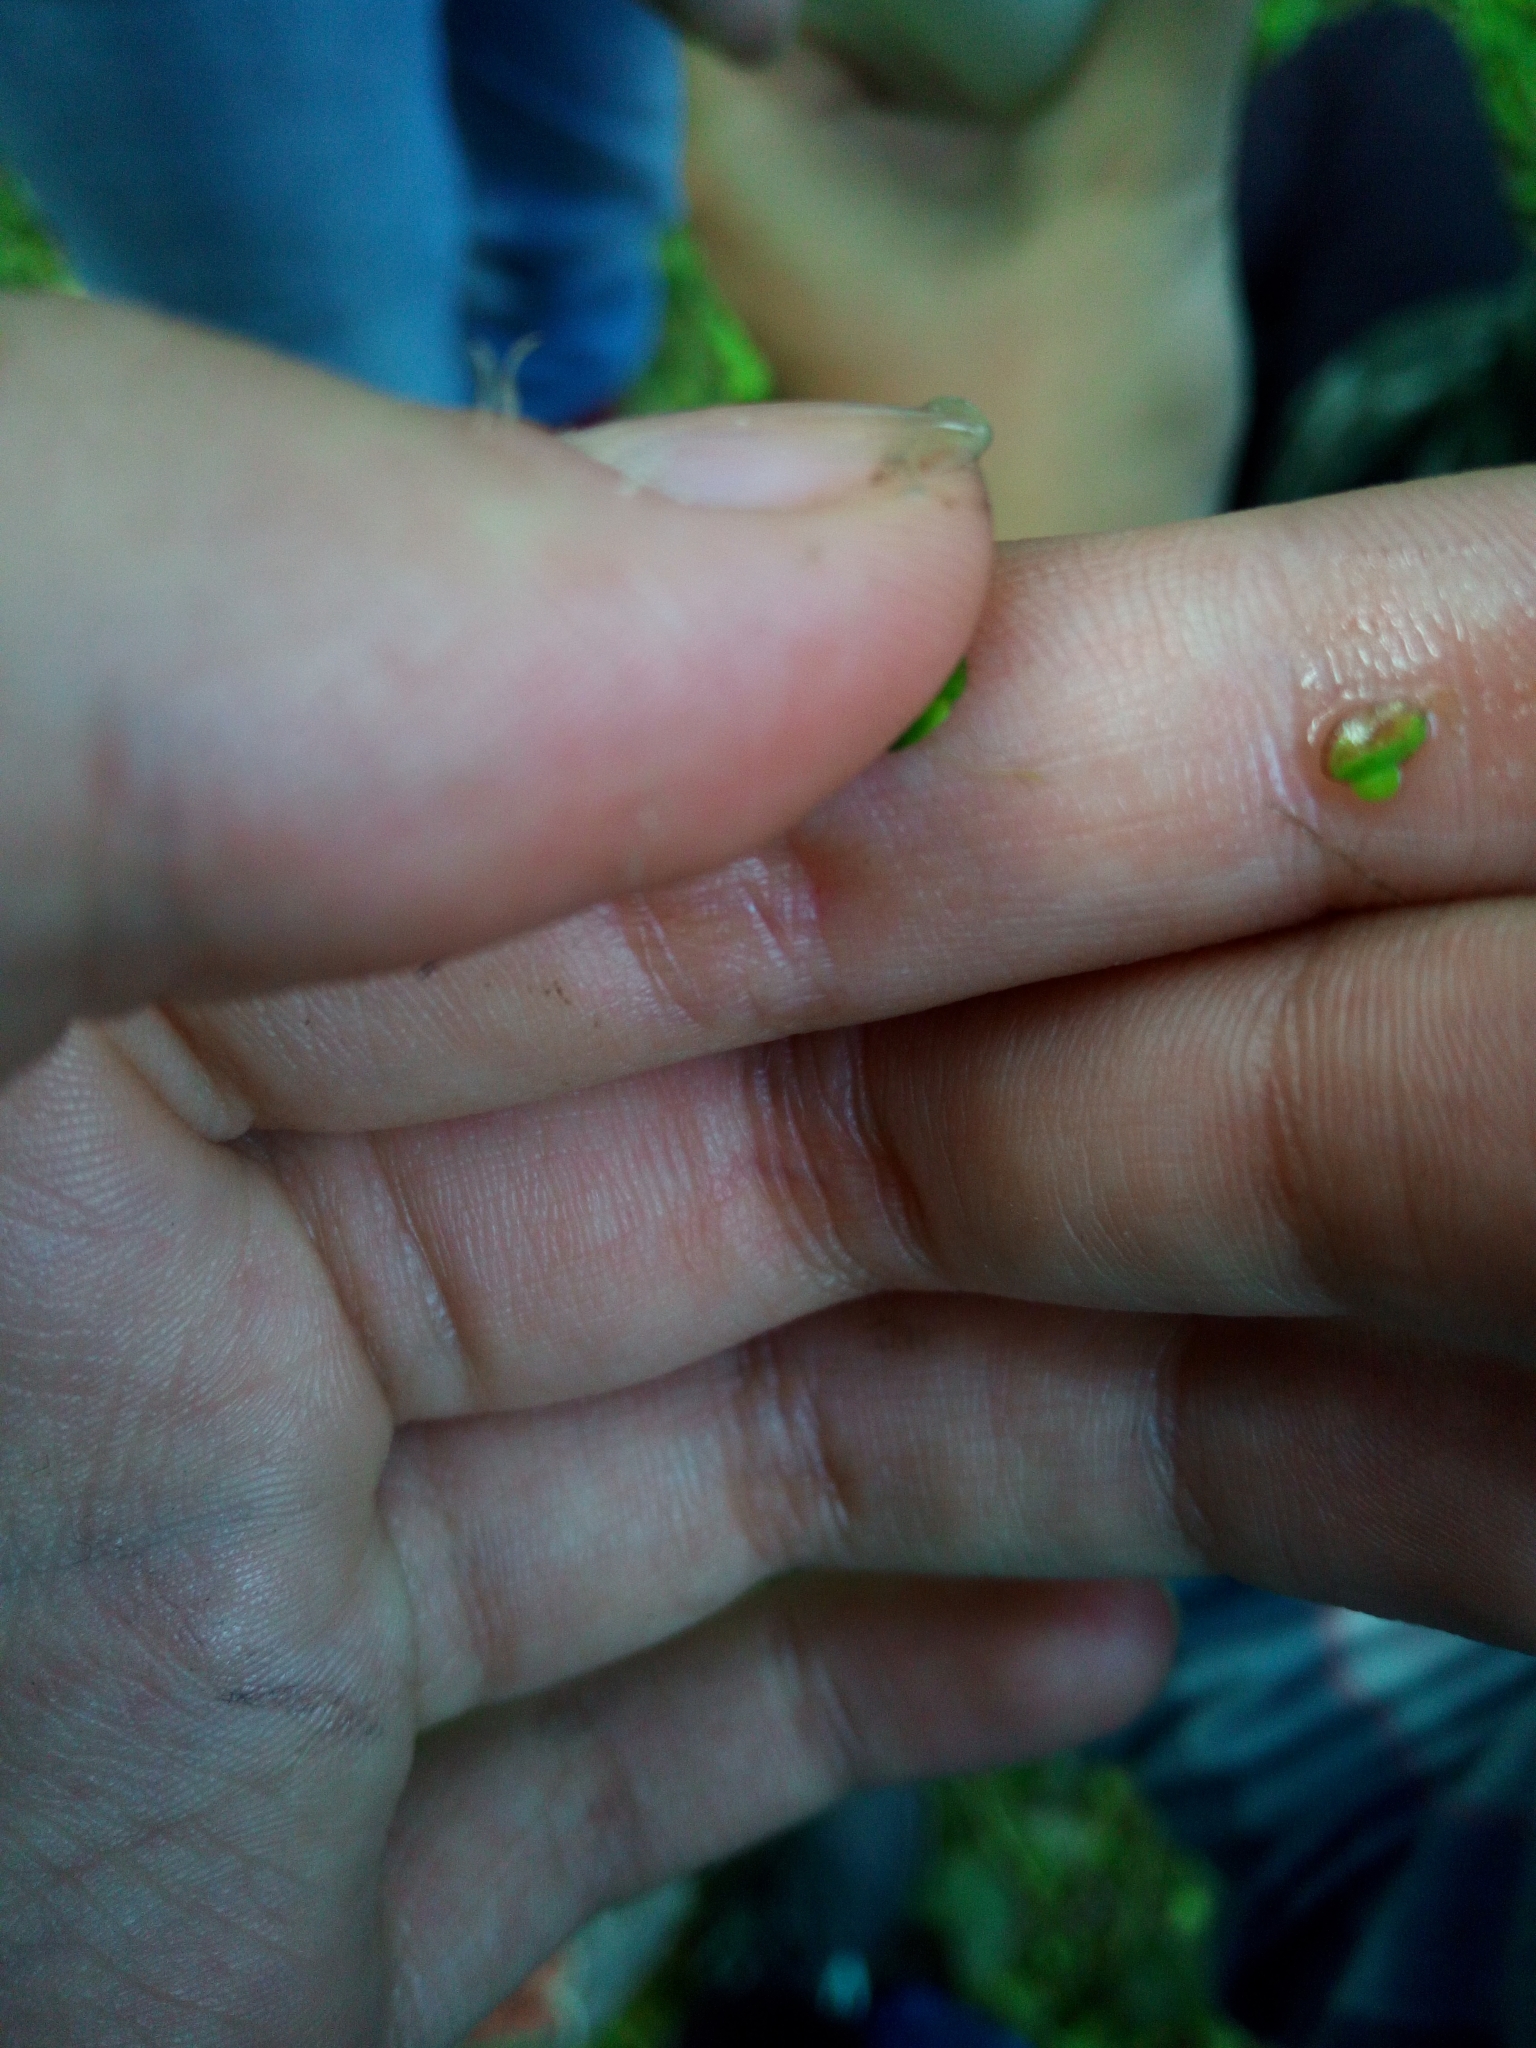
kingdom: Plantae
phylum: Tracheophyta
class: Liliopsida
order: Alismatales
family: Araceae
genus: Lemna
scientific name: Lemna minor
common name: Common duckweed
